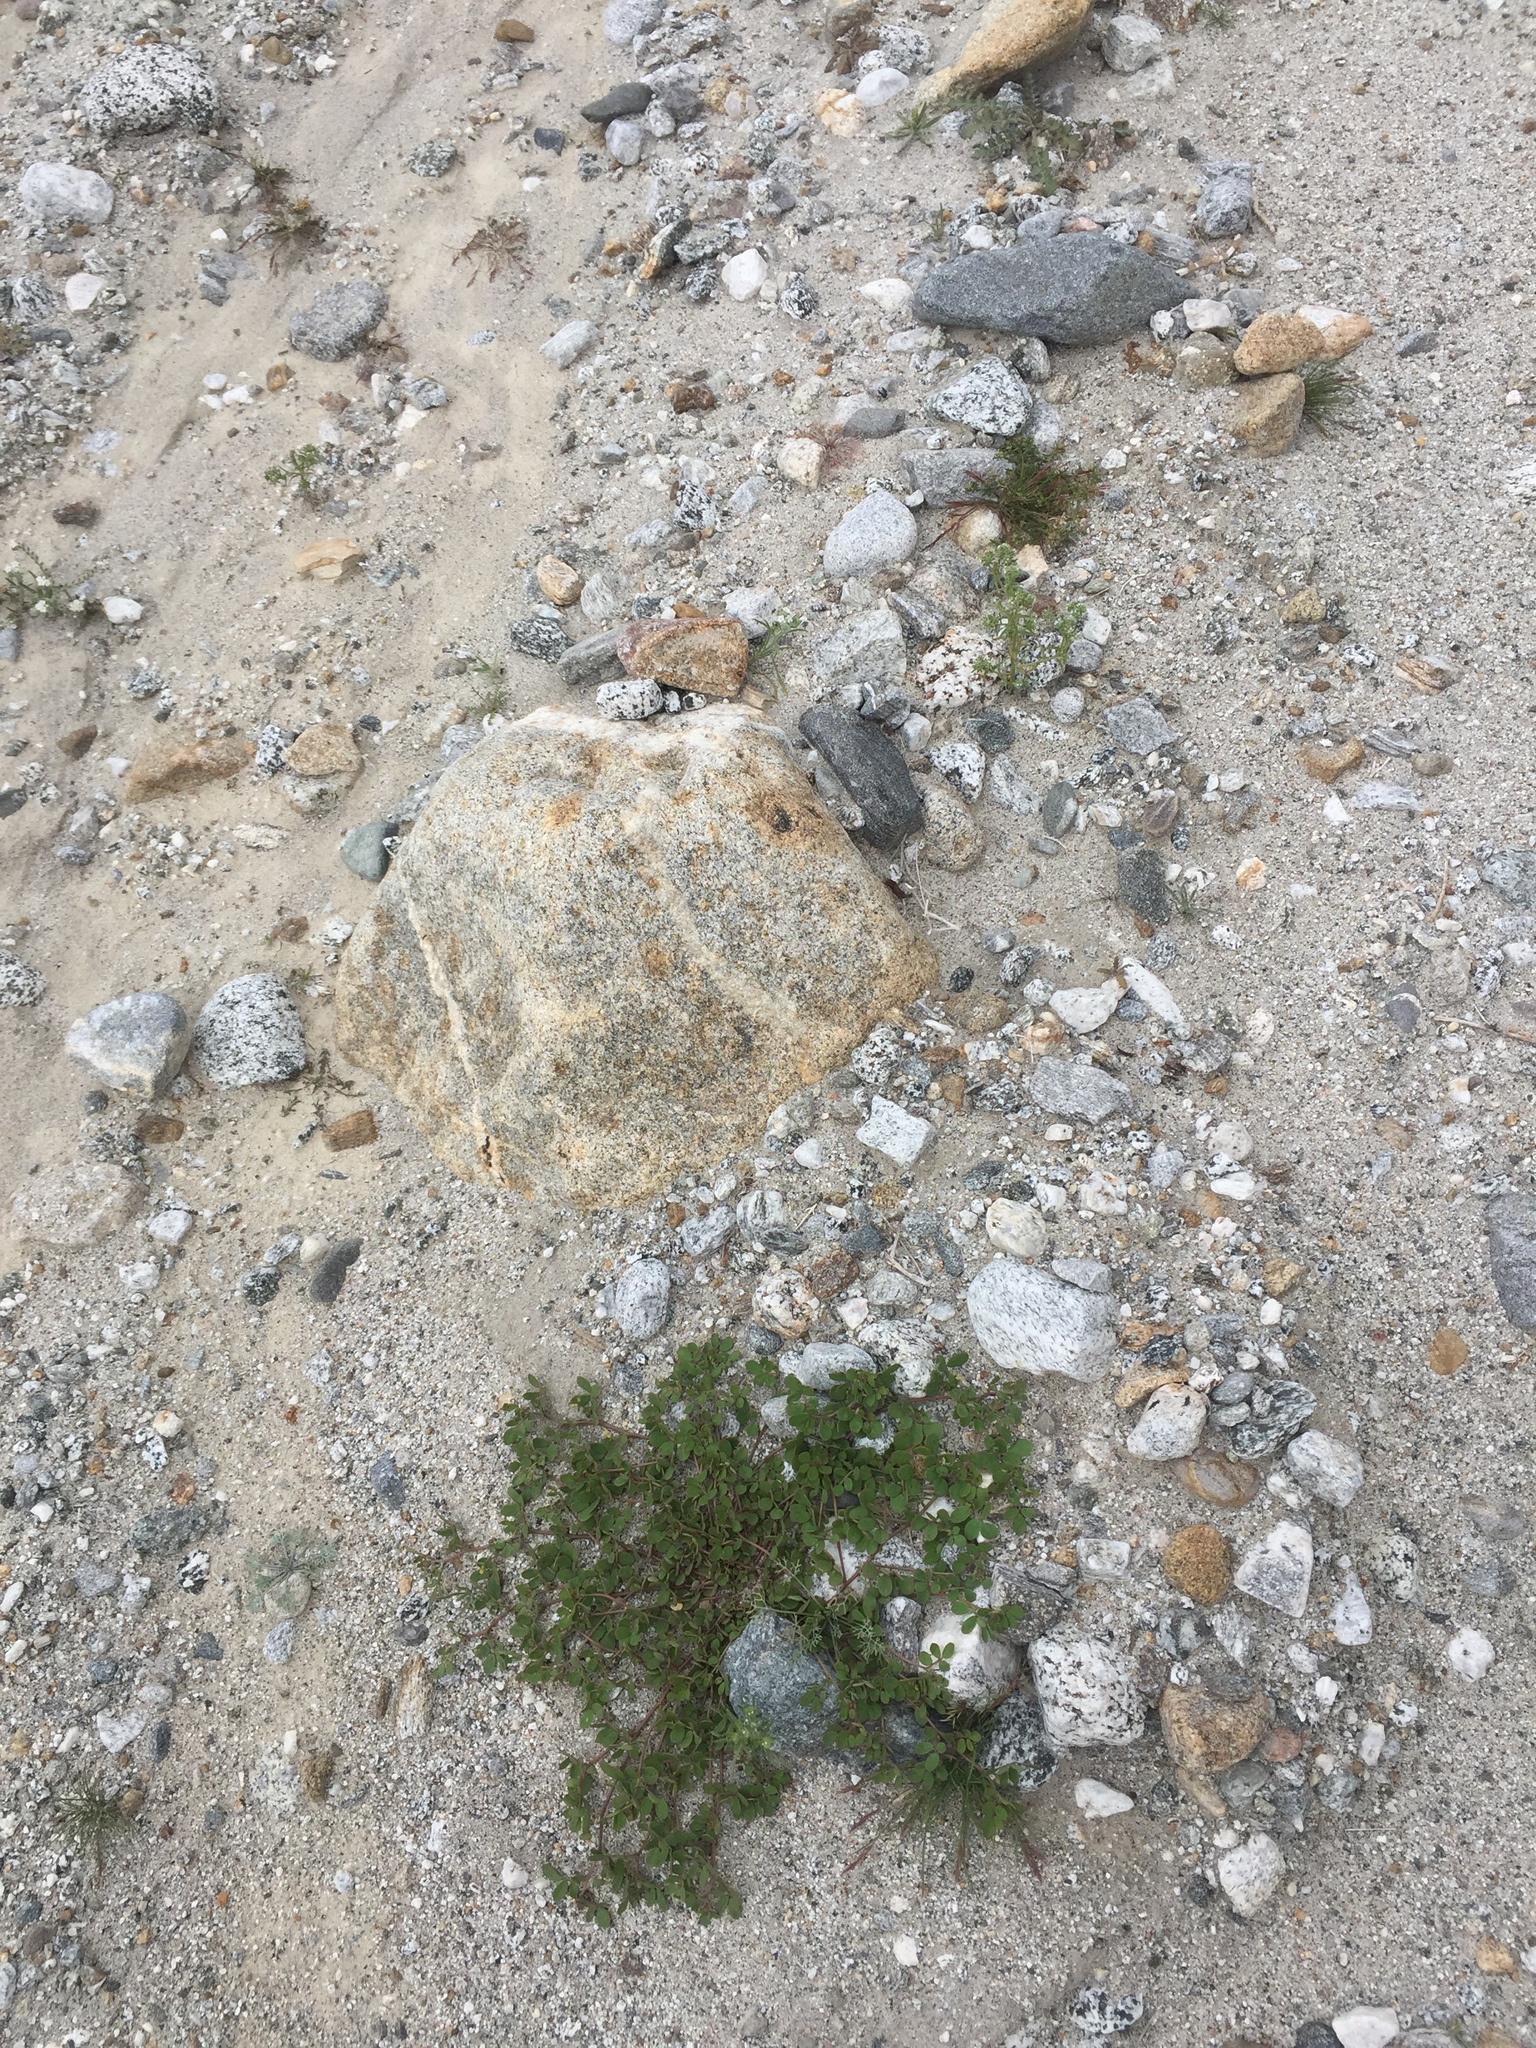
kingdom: Plantae
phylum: Tracheophyta
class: Magnoliopsida
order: Fabales
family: Fabaceae
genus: Acmispon
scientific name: Acmispon maritimus
